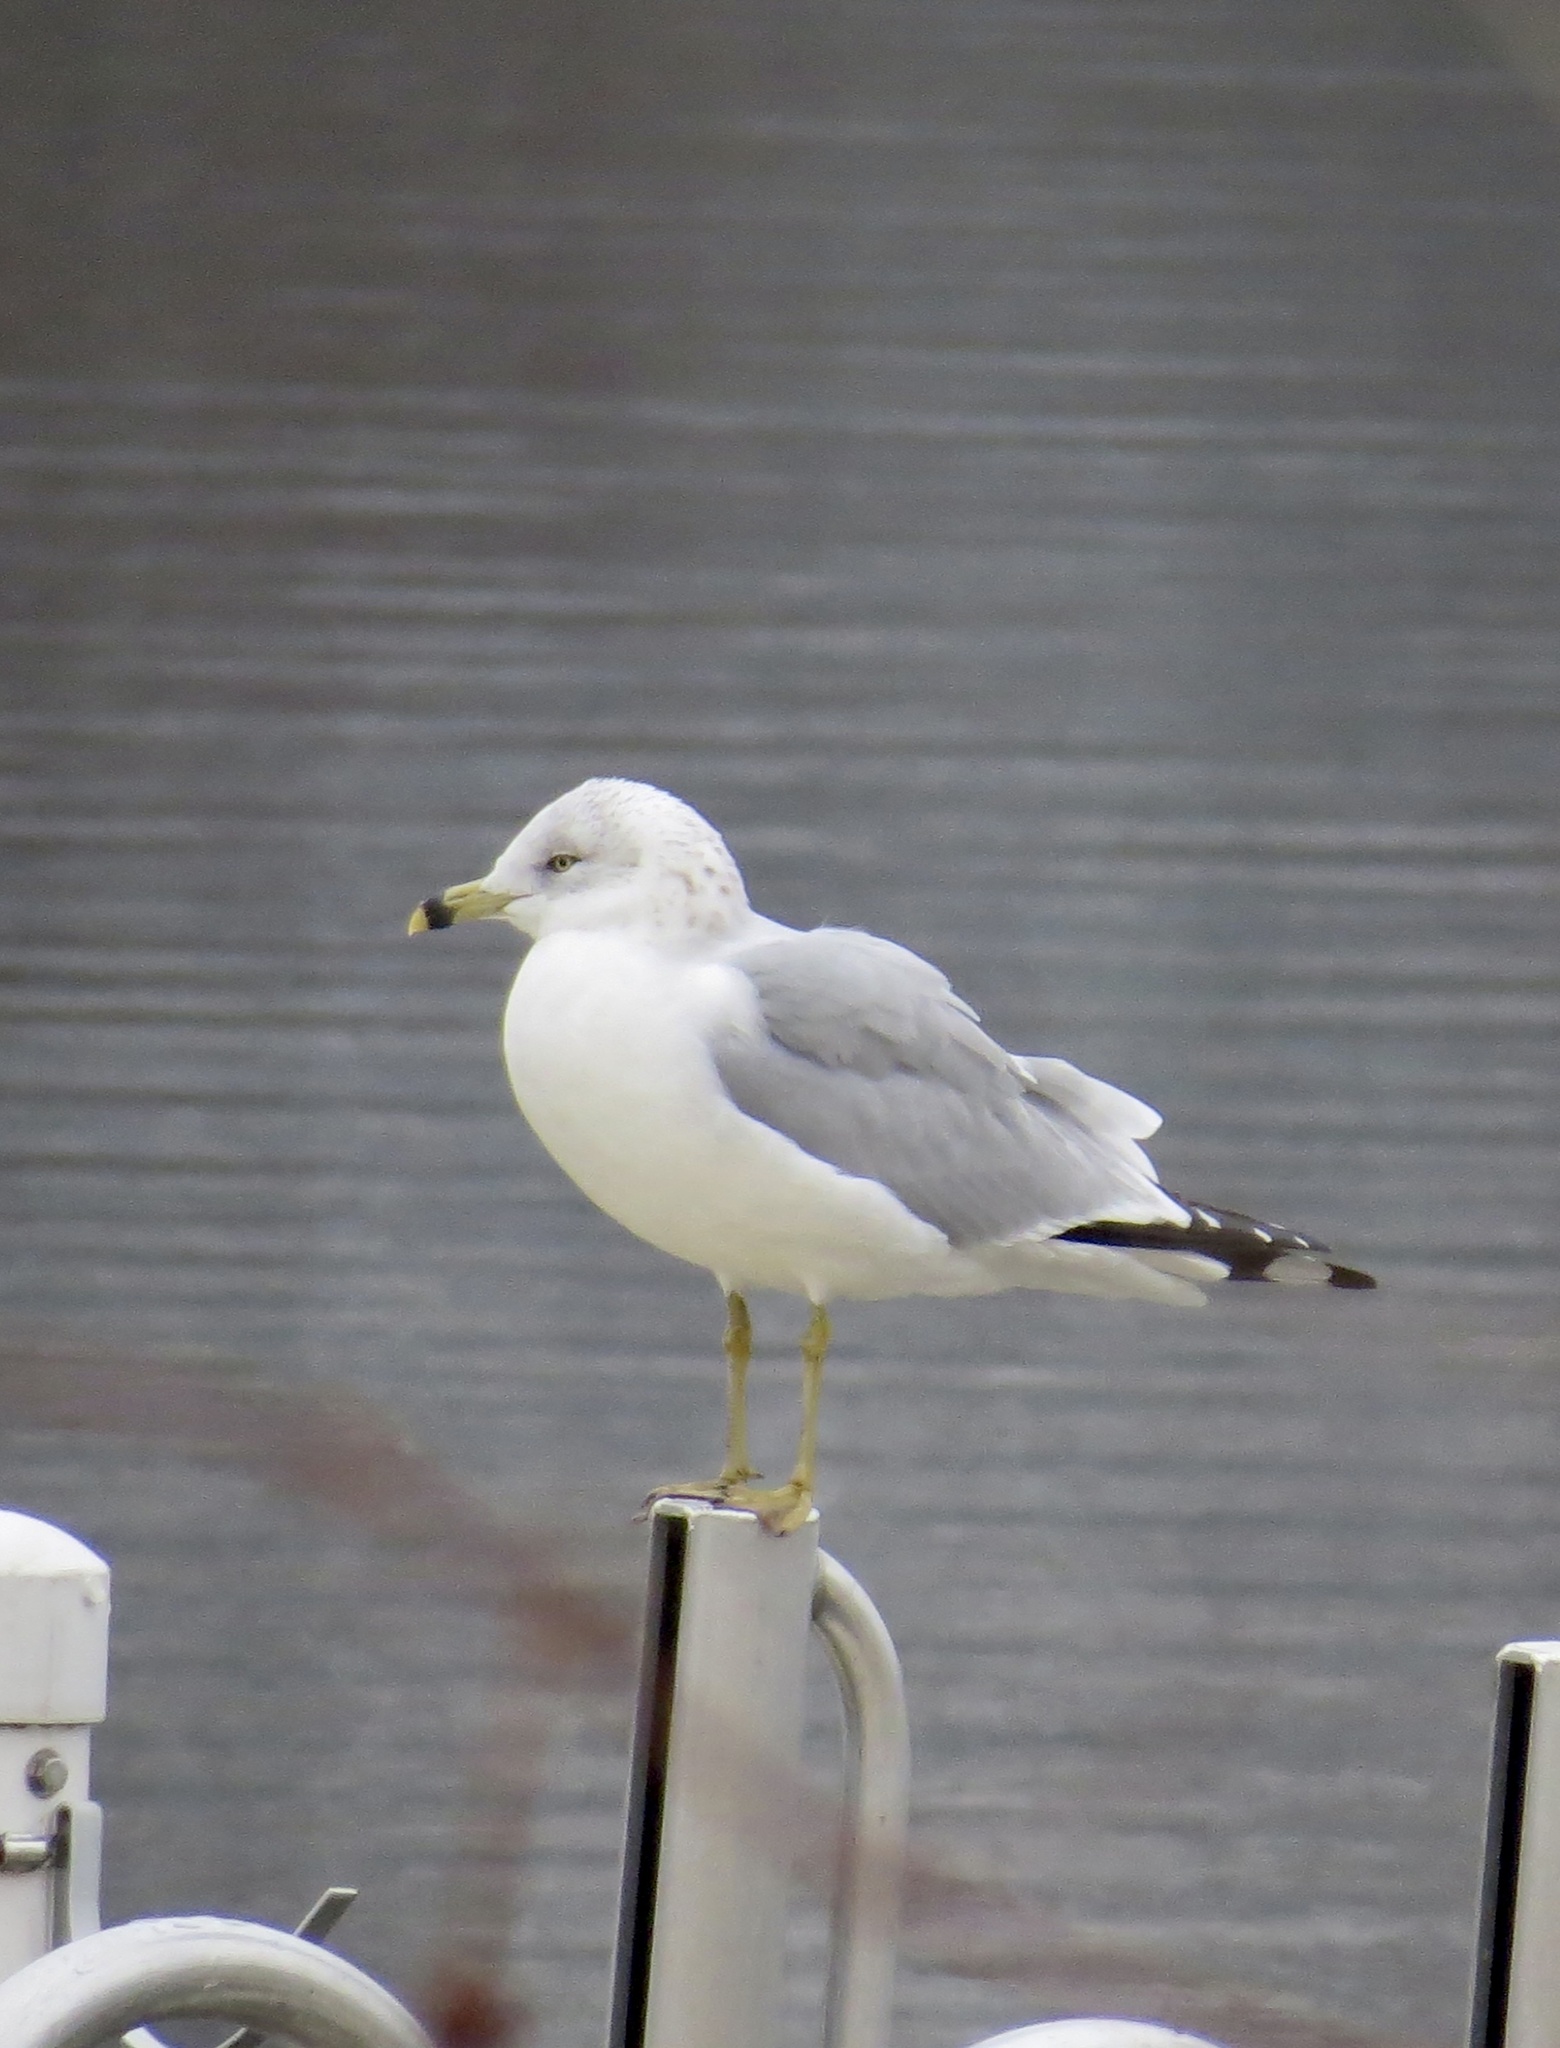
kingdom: Animalia
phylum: Chordata
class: Aves
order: Charadriiformes
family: Laridae
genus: Larus
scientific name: Larus delawarensis
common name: Ring-billed gull
